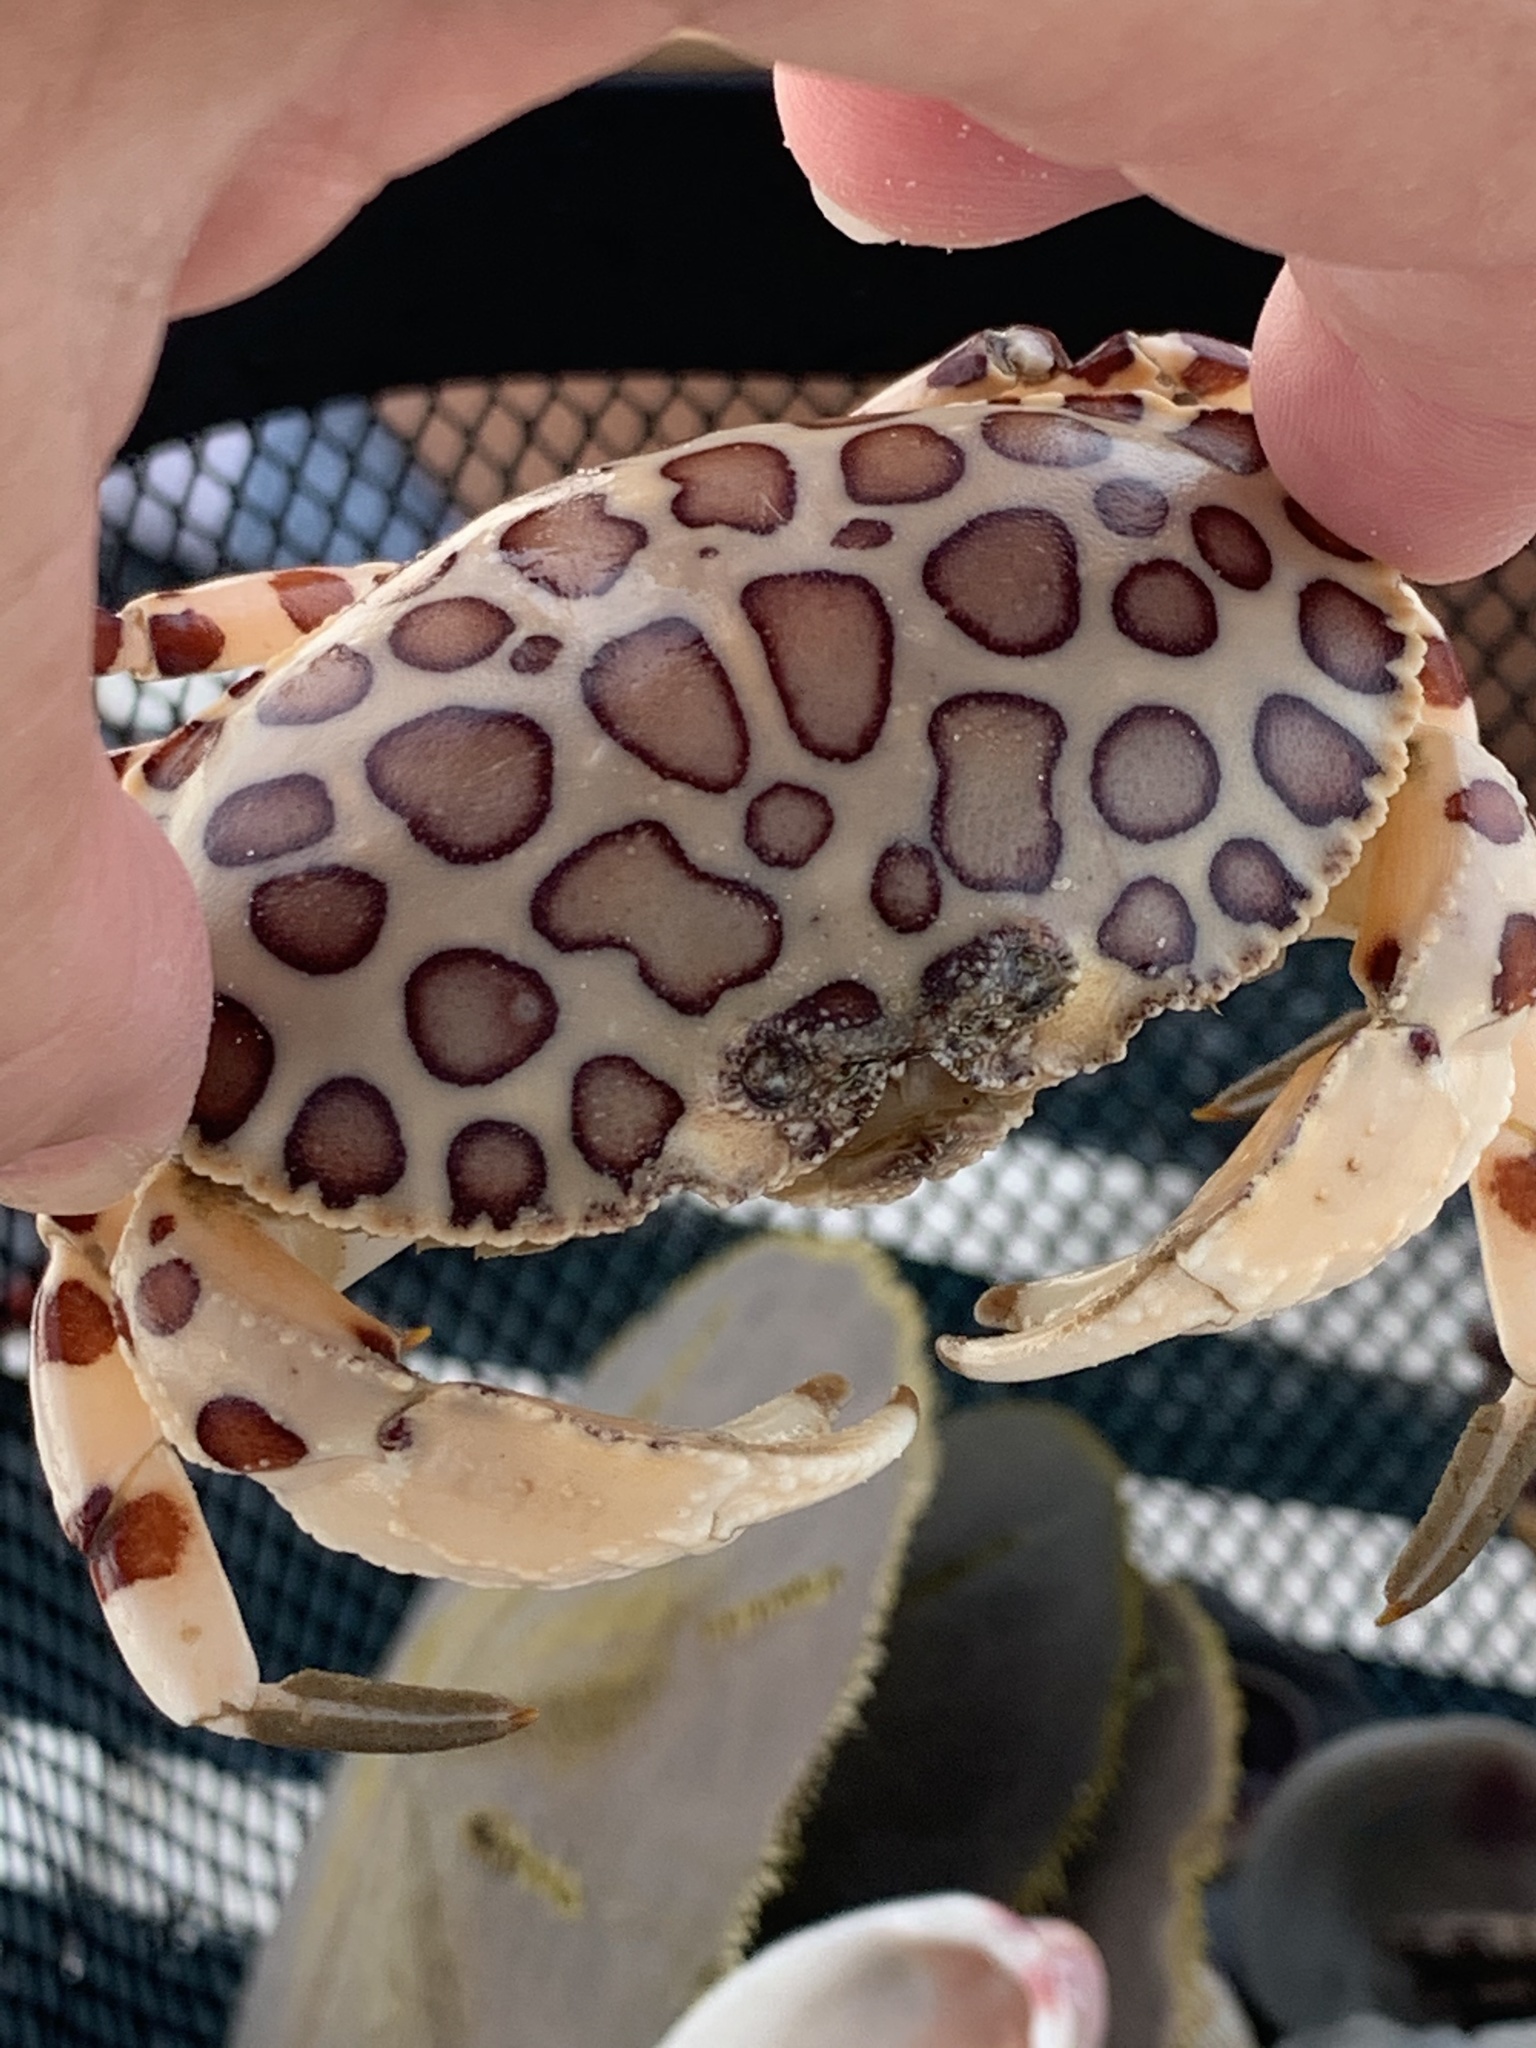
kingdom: Animalia
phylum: Arthropoda
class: Malacostraca
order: Decapoda
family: Aethridae
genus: Hepatus
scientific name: Hepatus epheliticus
